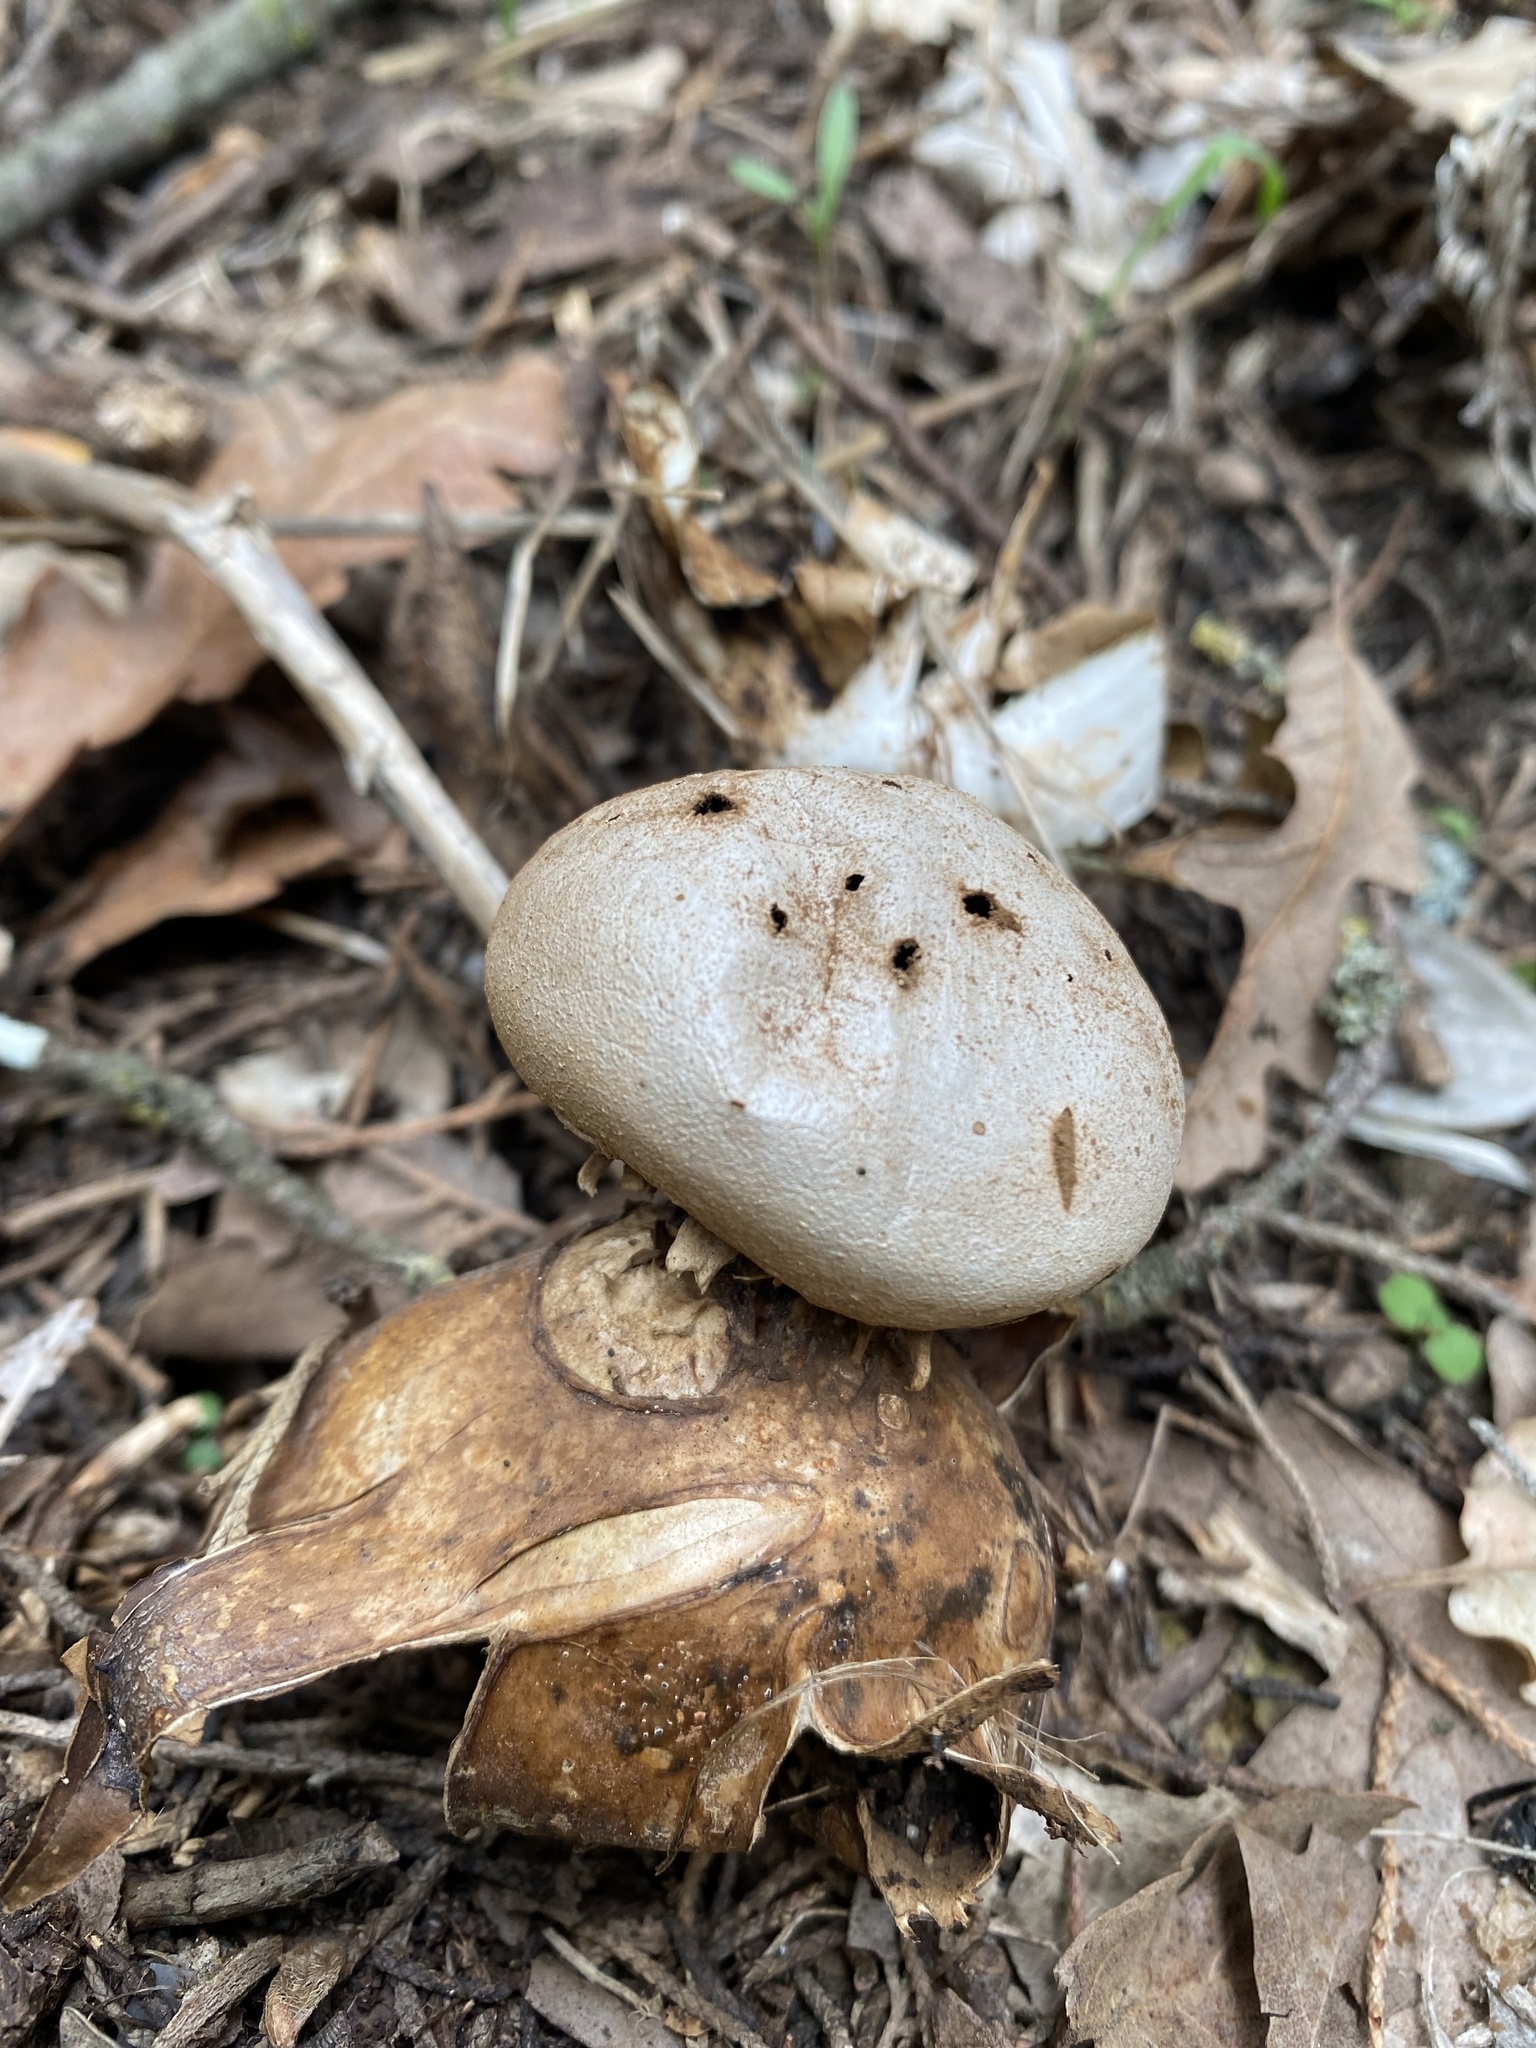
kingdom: Fungi
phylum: Basidiomycota
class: Agaricomycetes
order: Geastrales
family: Geastraceae
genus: Myriostoma
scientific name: Myriostoma coliforme
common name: Pepper pot
